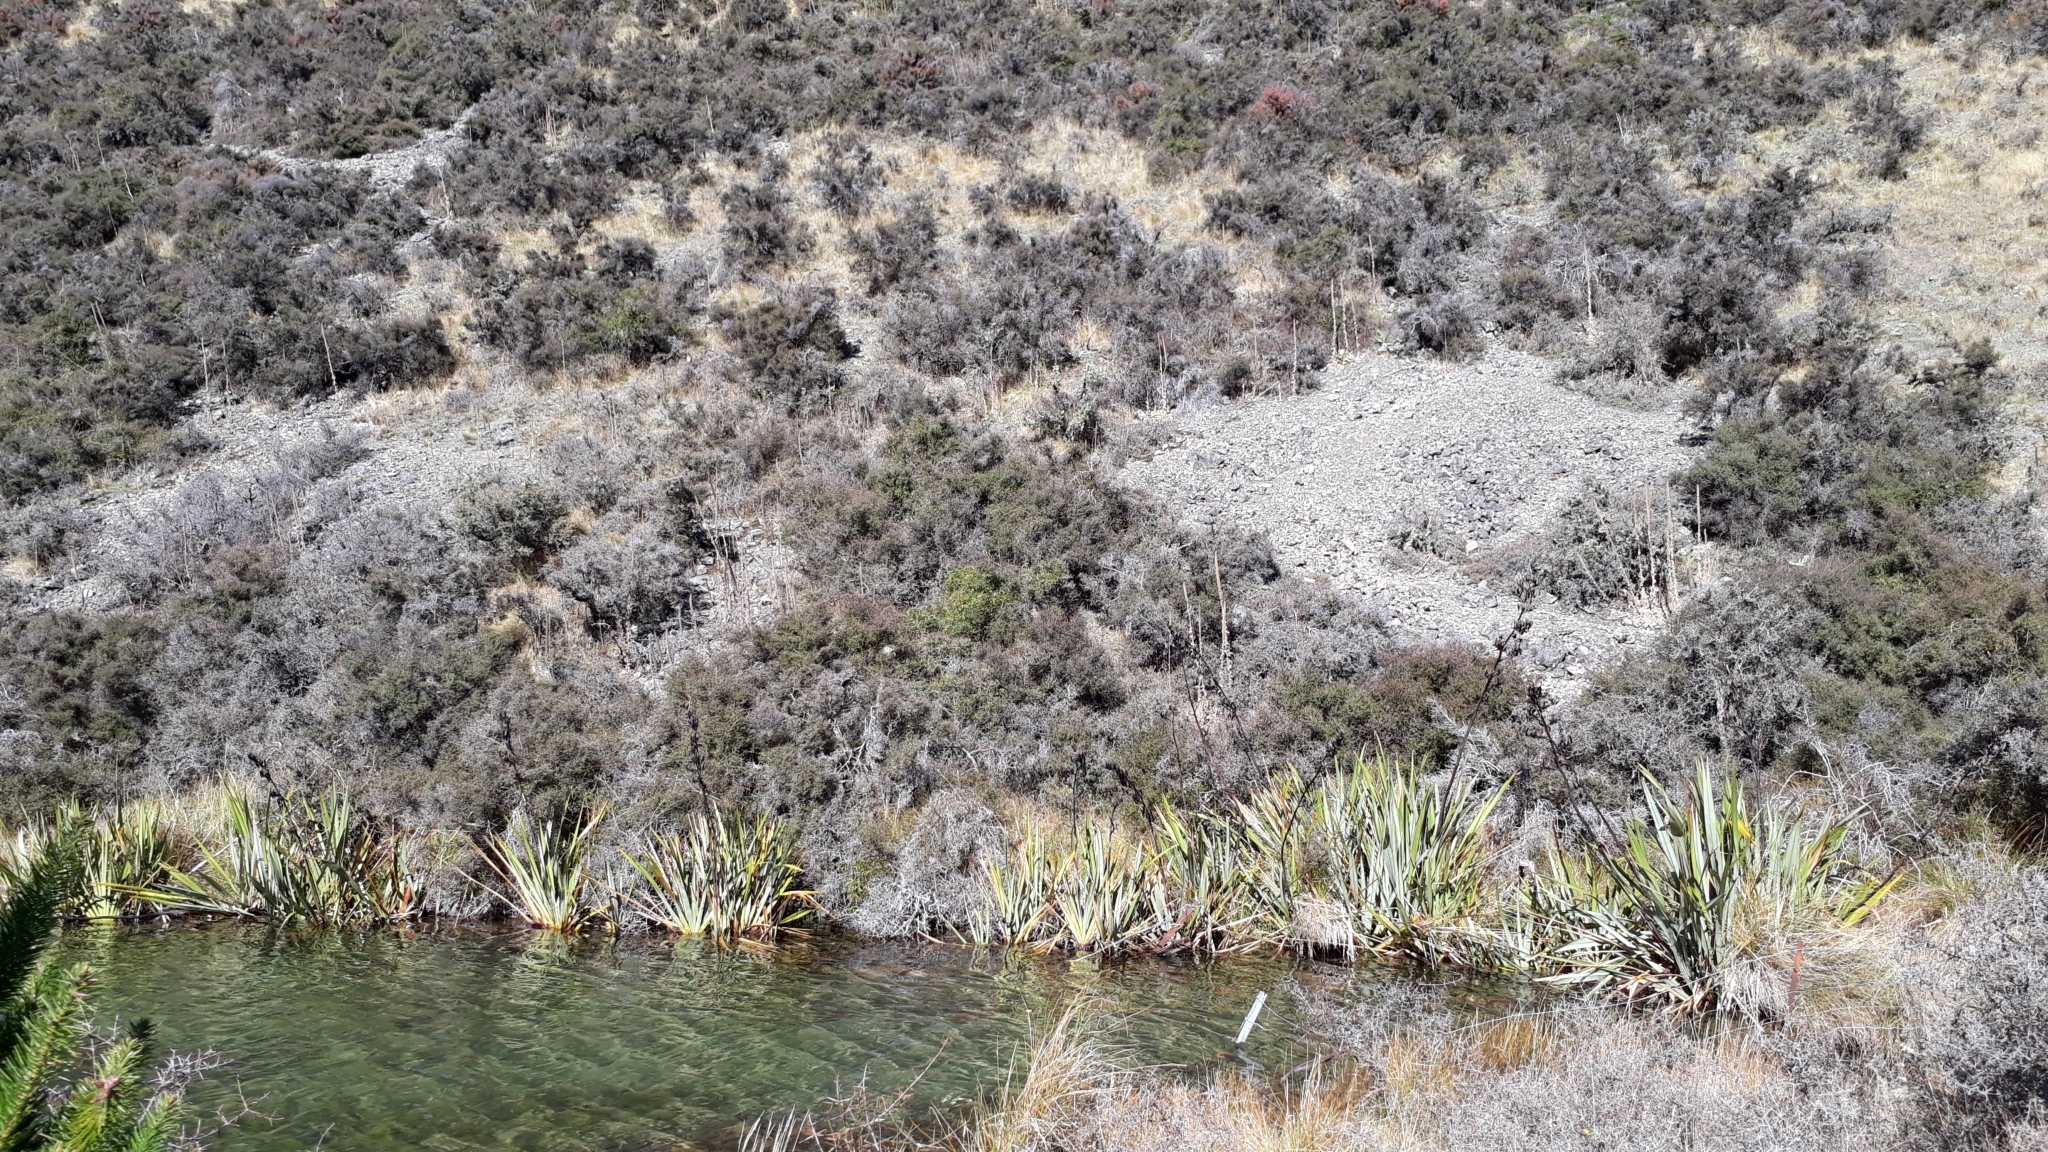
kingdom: Plantae
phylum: Tracheophyta
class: Liliopsida
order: Asparagales
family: Asphodelaceae
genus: Phormium
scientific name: Phormium tenax
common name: New zealand flax
